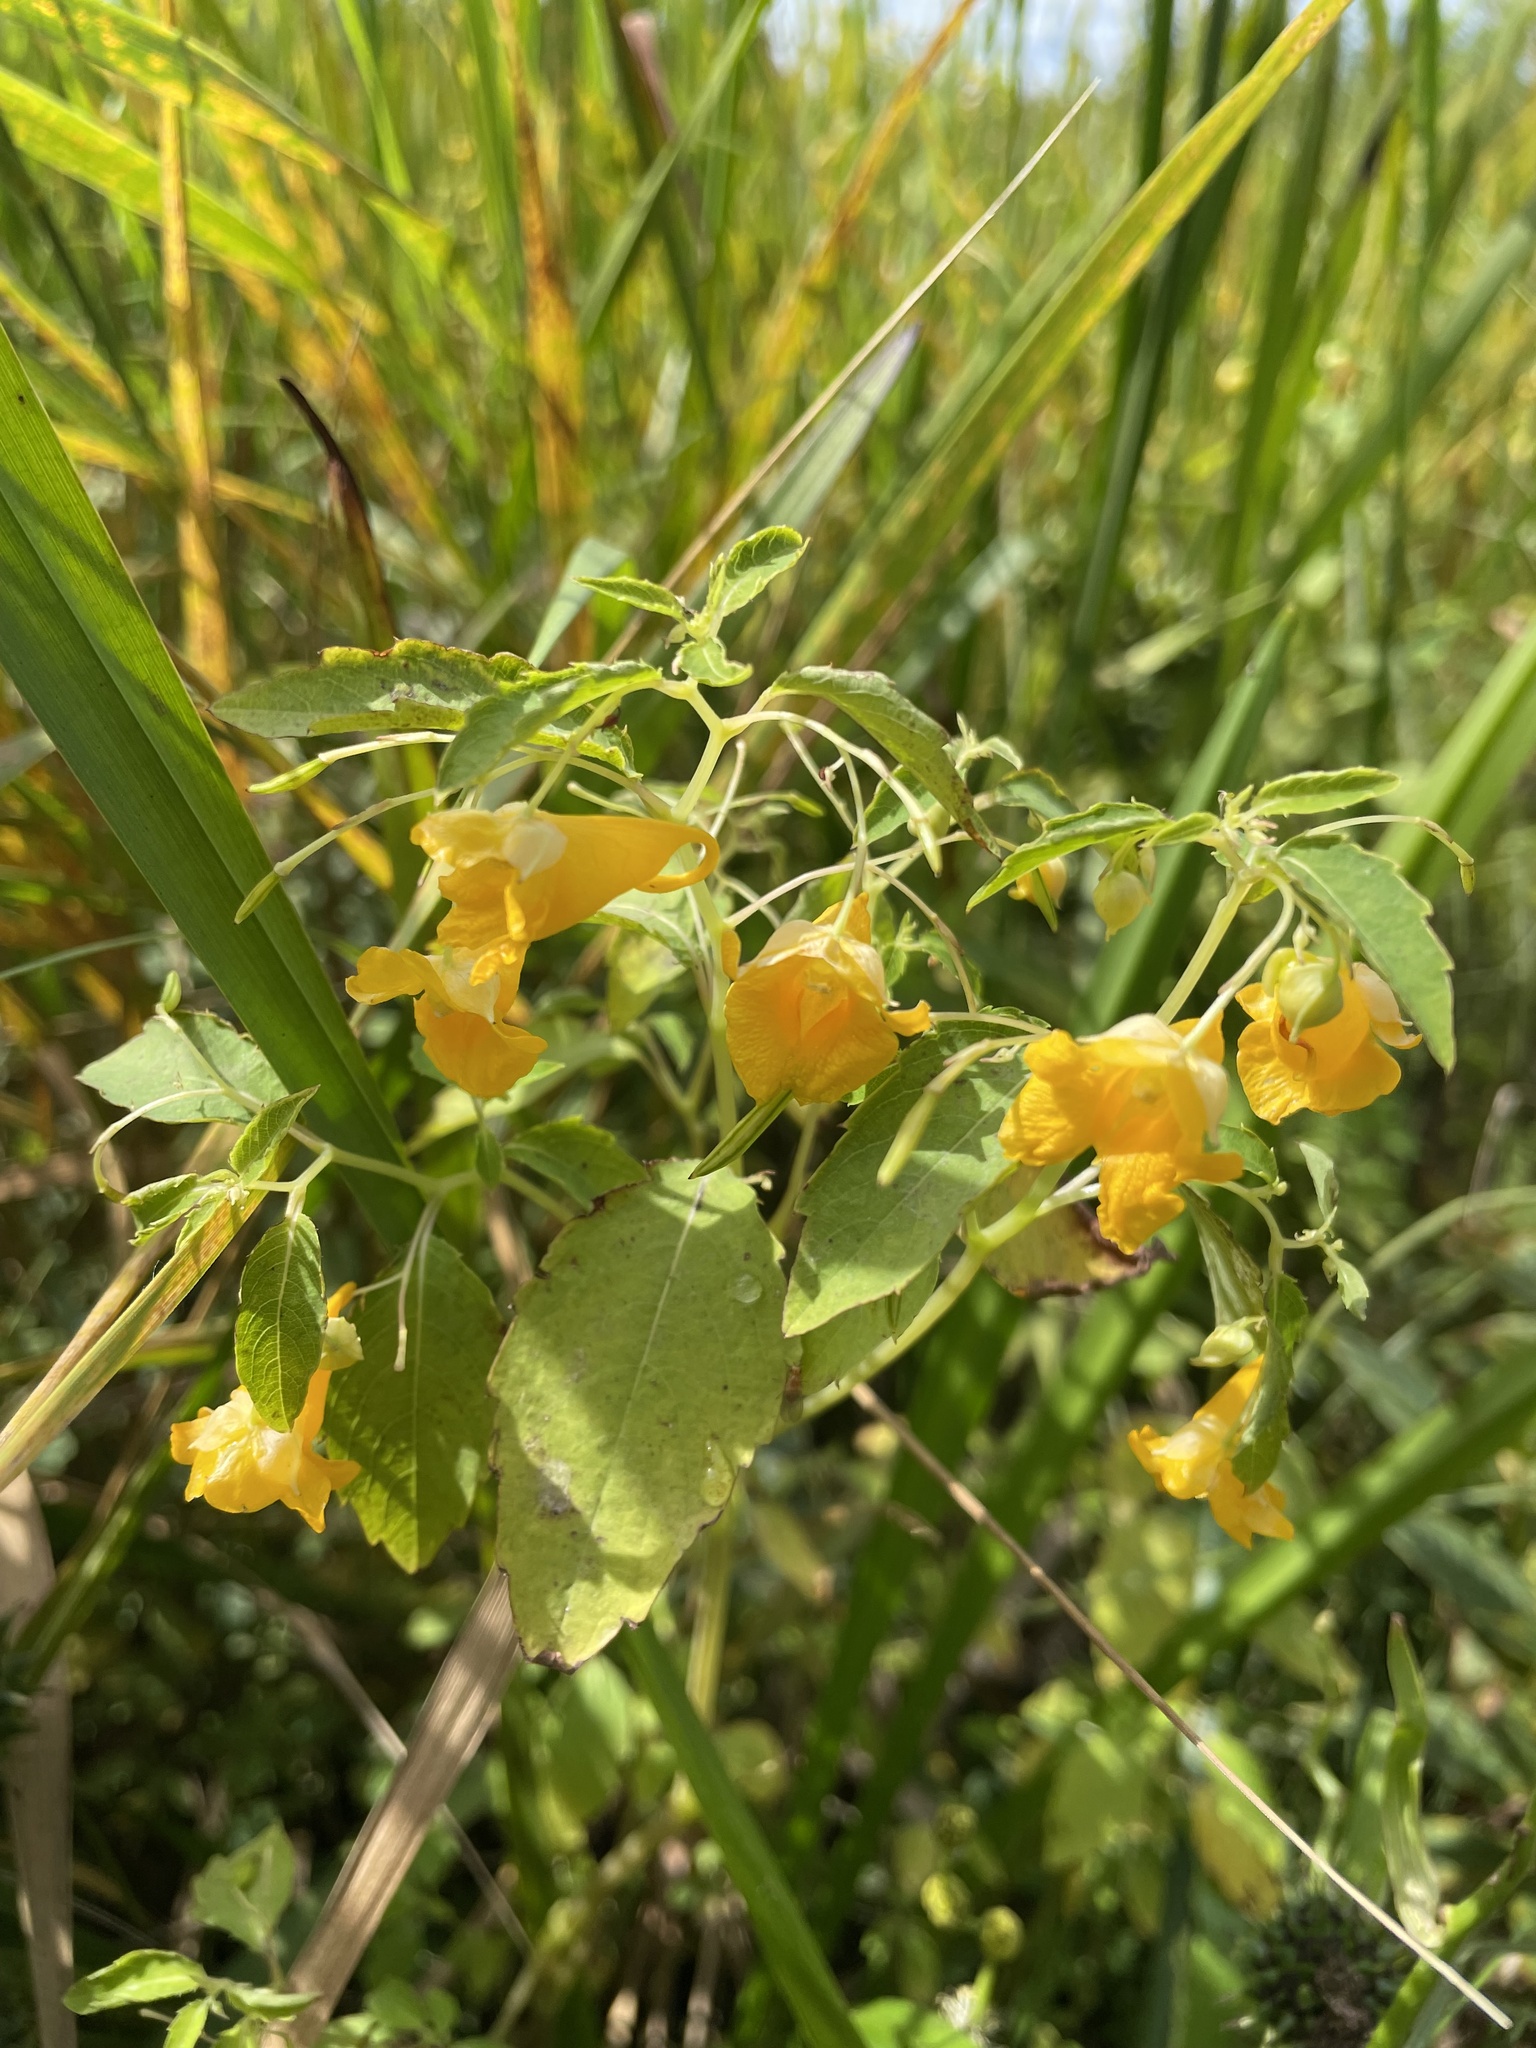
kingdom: Plantae
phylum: Tracheophyta
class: Magnoliopsida
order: Ericales
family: Balsaminaceae
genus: Impatiens
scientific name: Impatiens capensis
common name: Orange balsam
